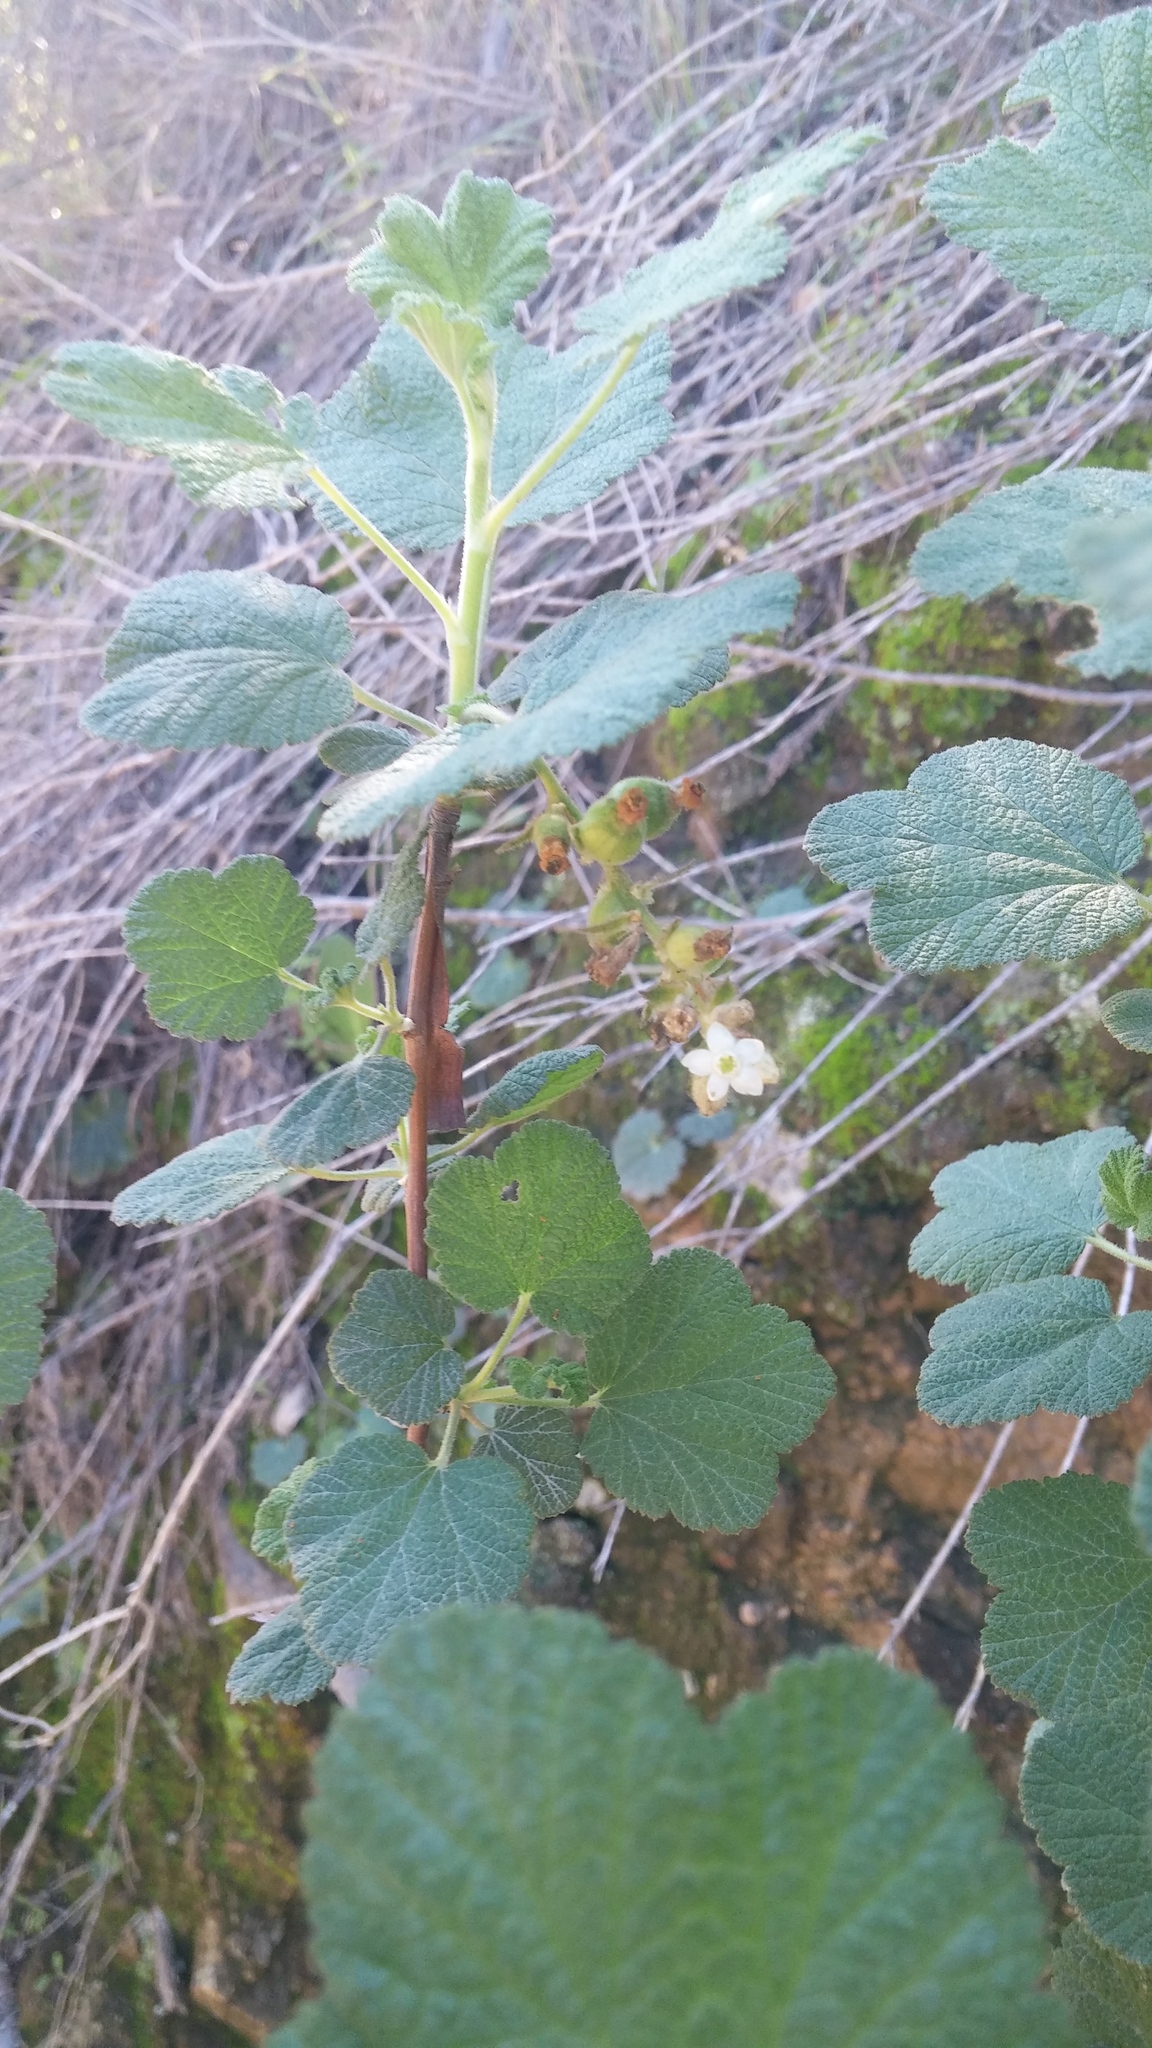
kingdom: Plantae
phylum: Tracheophyta
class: Magnoliopsida
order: Saxifragales
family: Grossulariaceae
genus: Ribes
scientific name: Ribes indecorum
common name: White-flower currant
